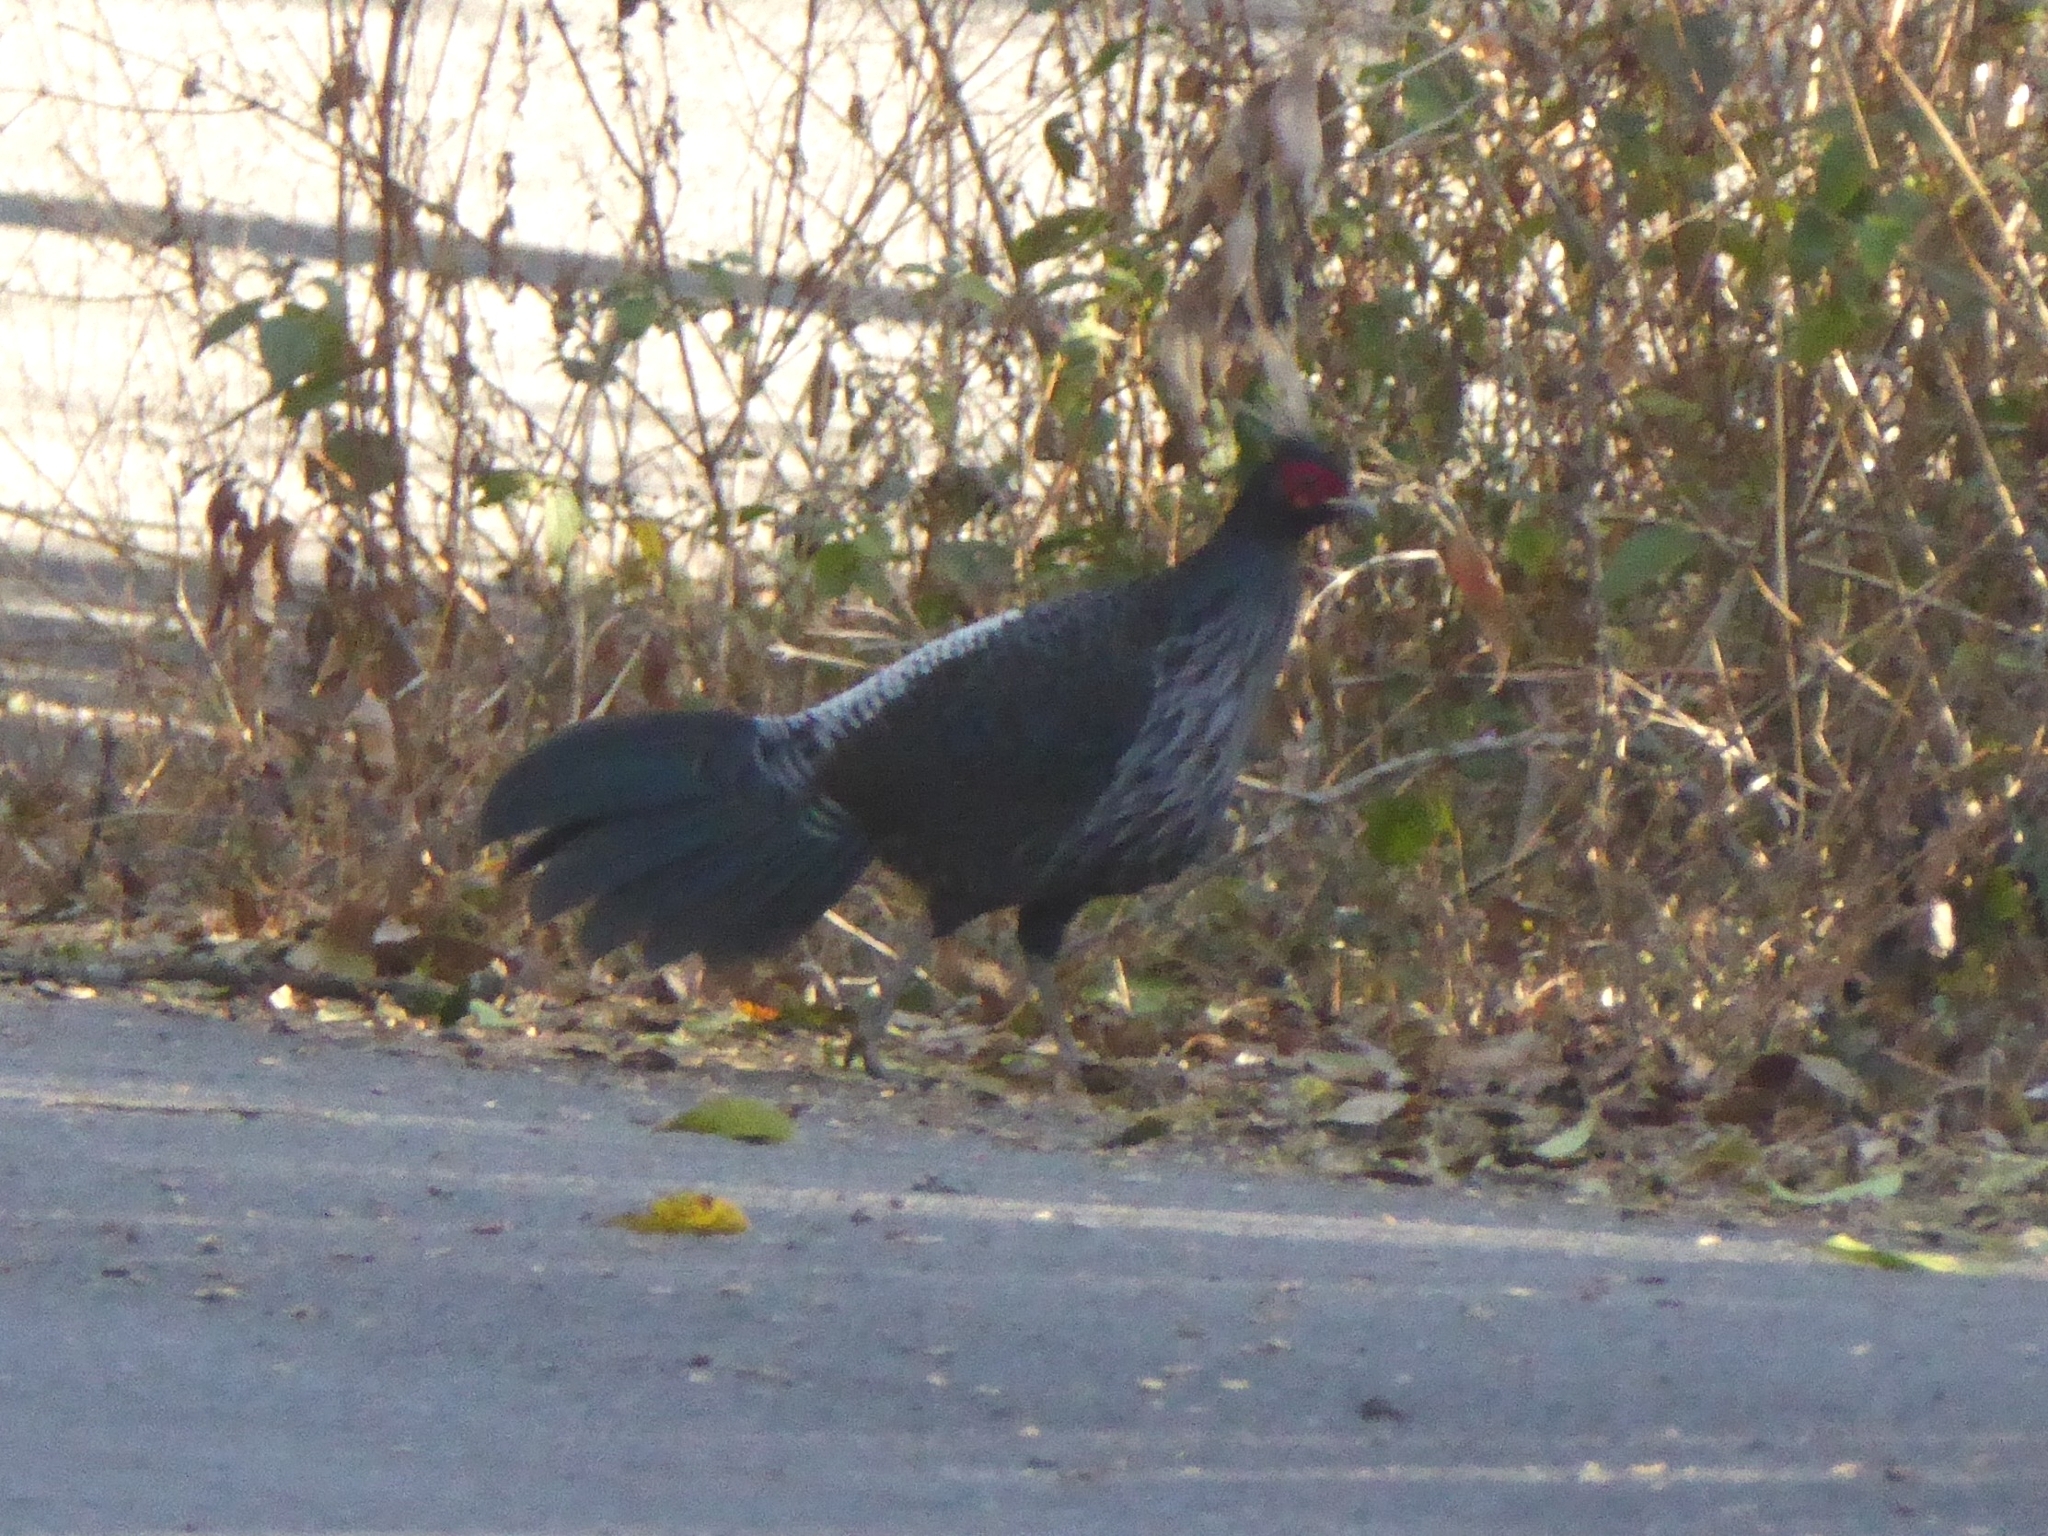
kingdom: Animalia
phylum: Chordata
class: Aves
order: Galliformes
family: Phasianidae
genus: Lophura
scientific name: Lophura leucomelanos
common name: Kalij pheasant
